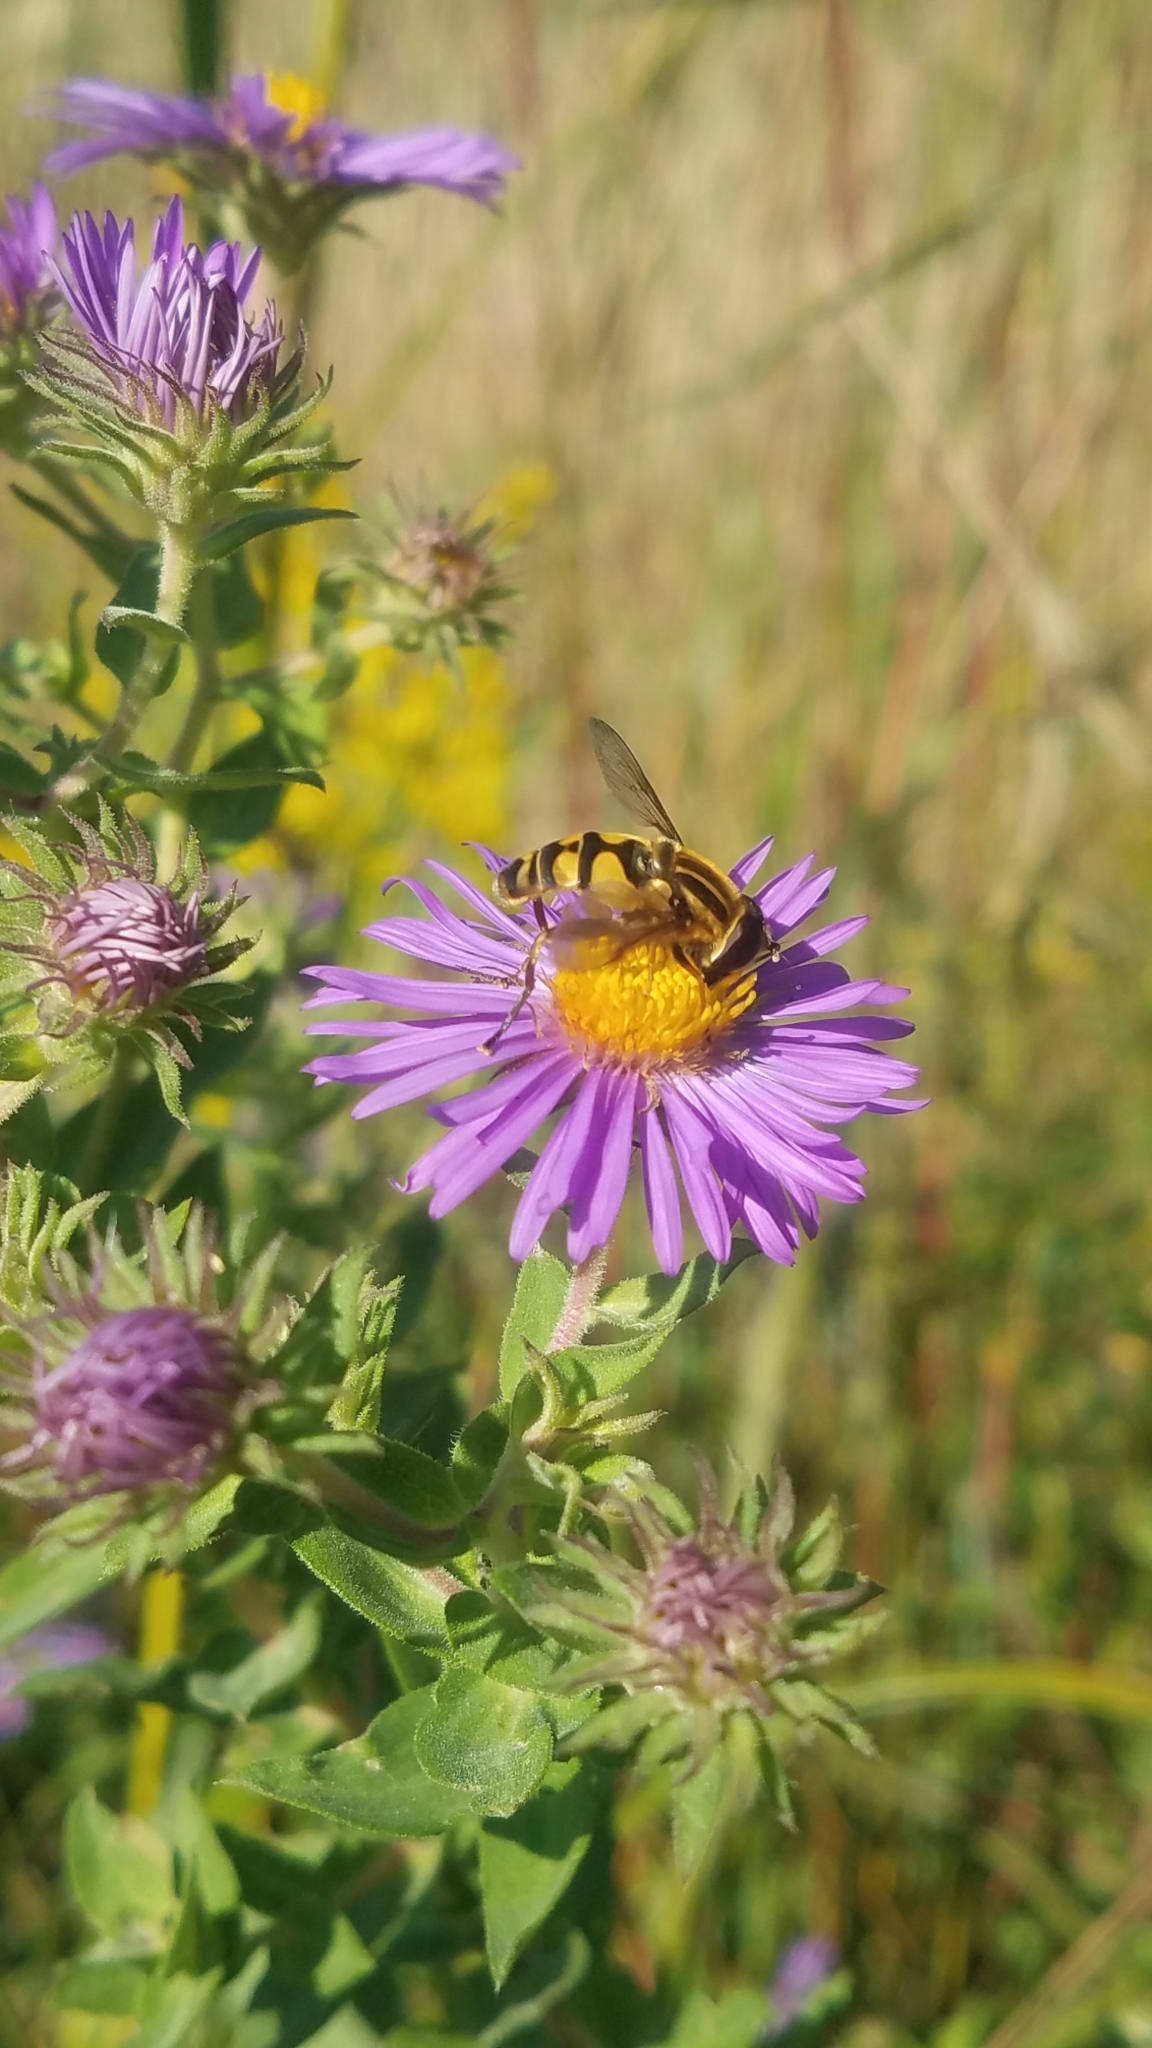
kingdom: Animalia
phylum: Arthropoda
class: Insecta
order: Diptera
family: Syrphidae
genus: Helophilus
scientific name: Helophilus fasciatus
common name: Narrow-headed marsh fly
